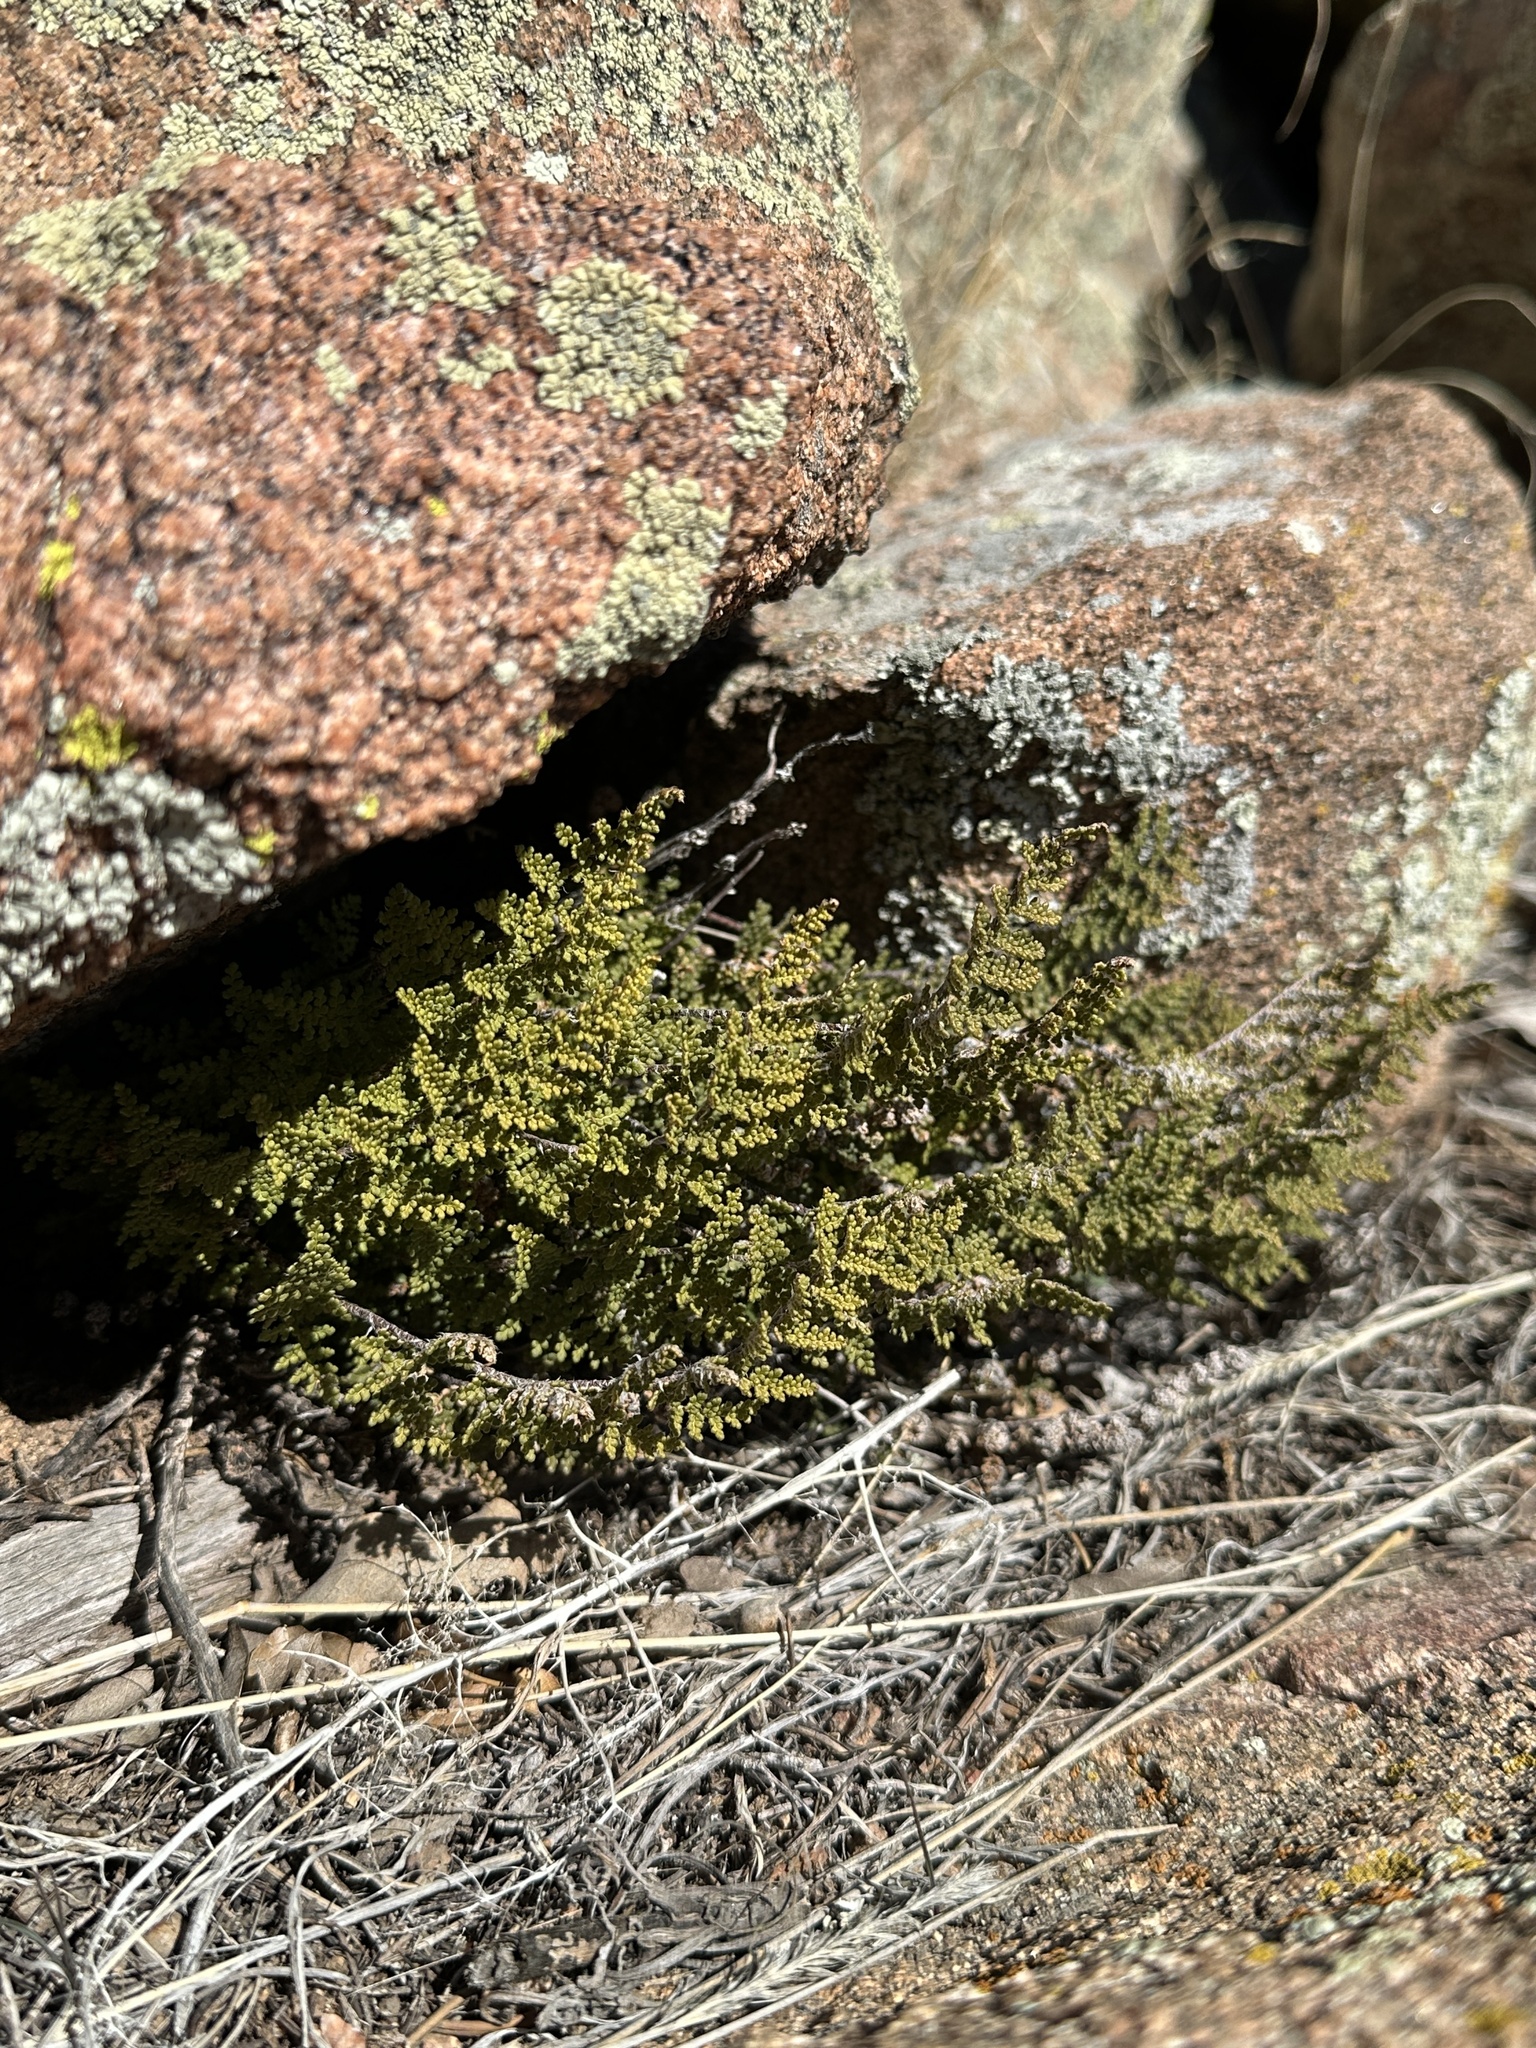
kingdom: Plantae
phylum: Tracheophyta
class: Polypodiopsida
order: Polypodiales
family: Pteridaceae
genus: Myriopteris
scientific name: Myriopteris fendleri
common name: Fendler's lip fern
